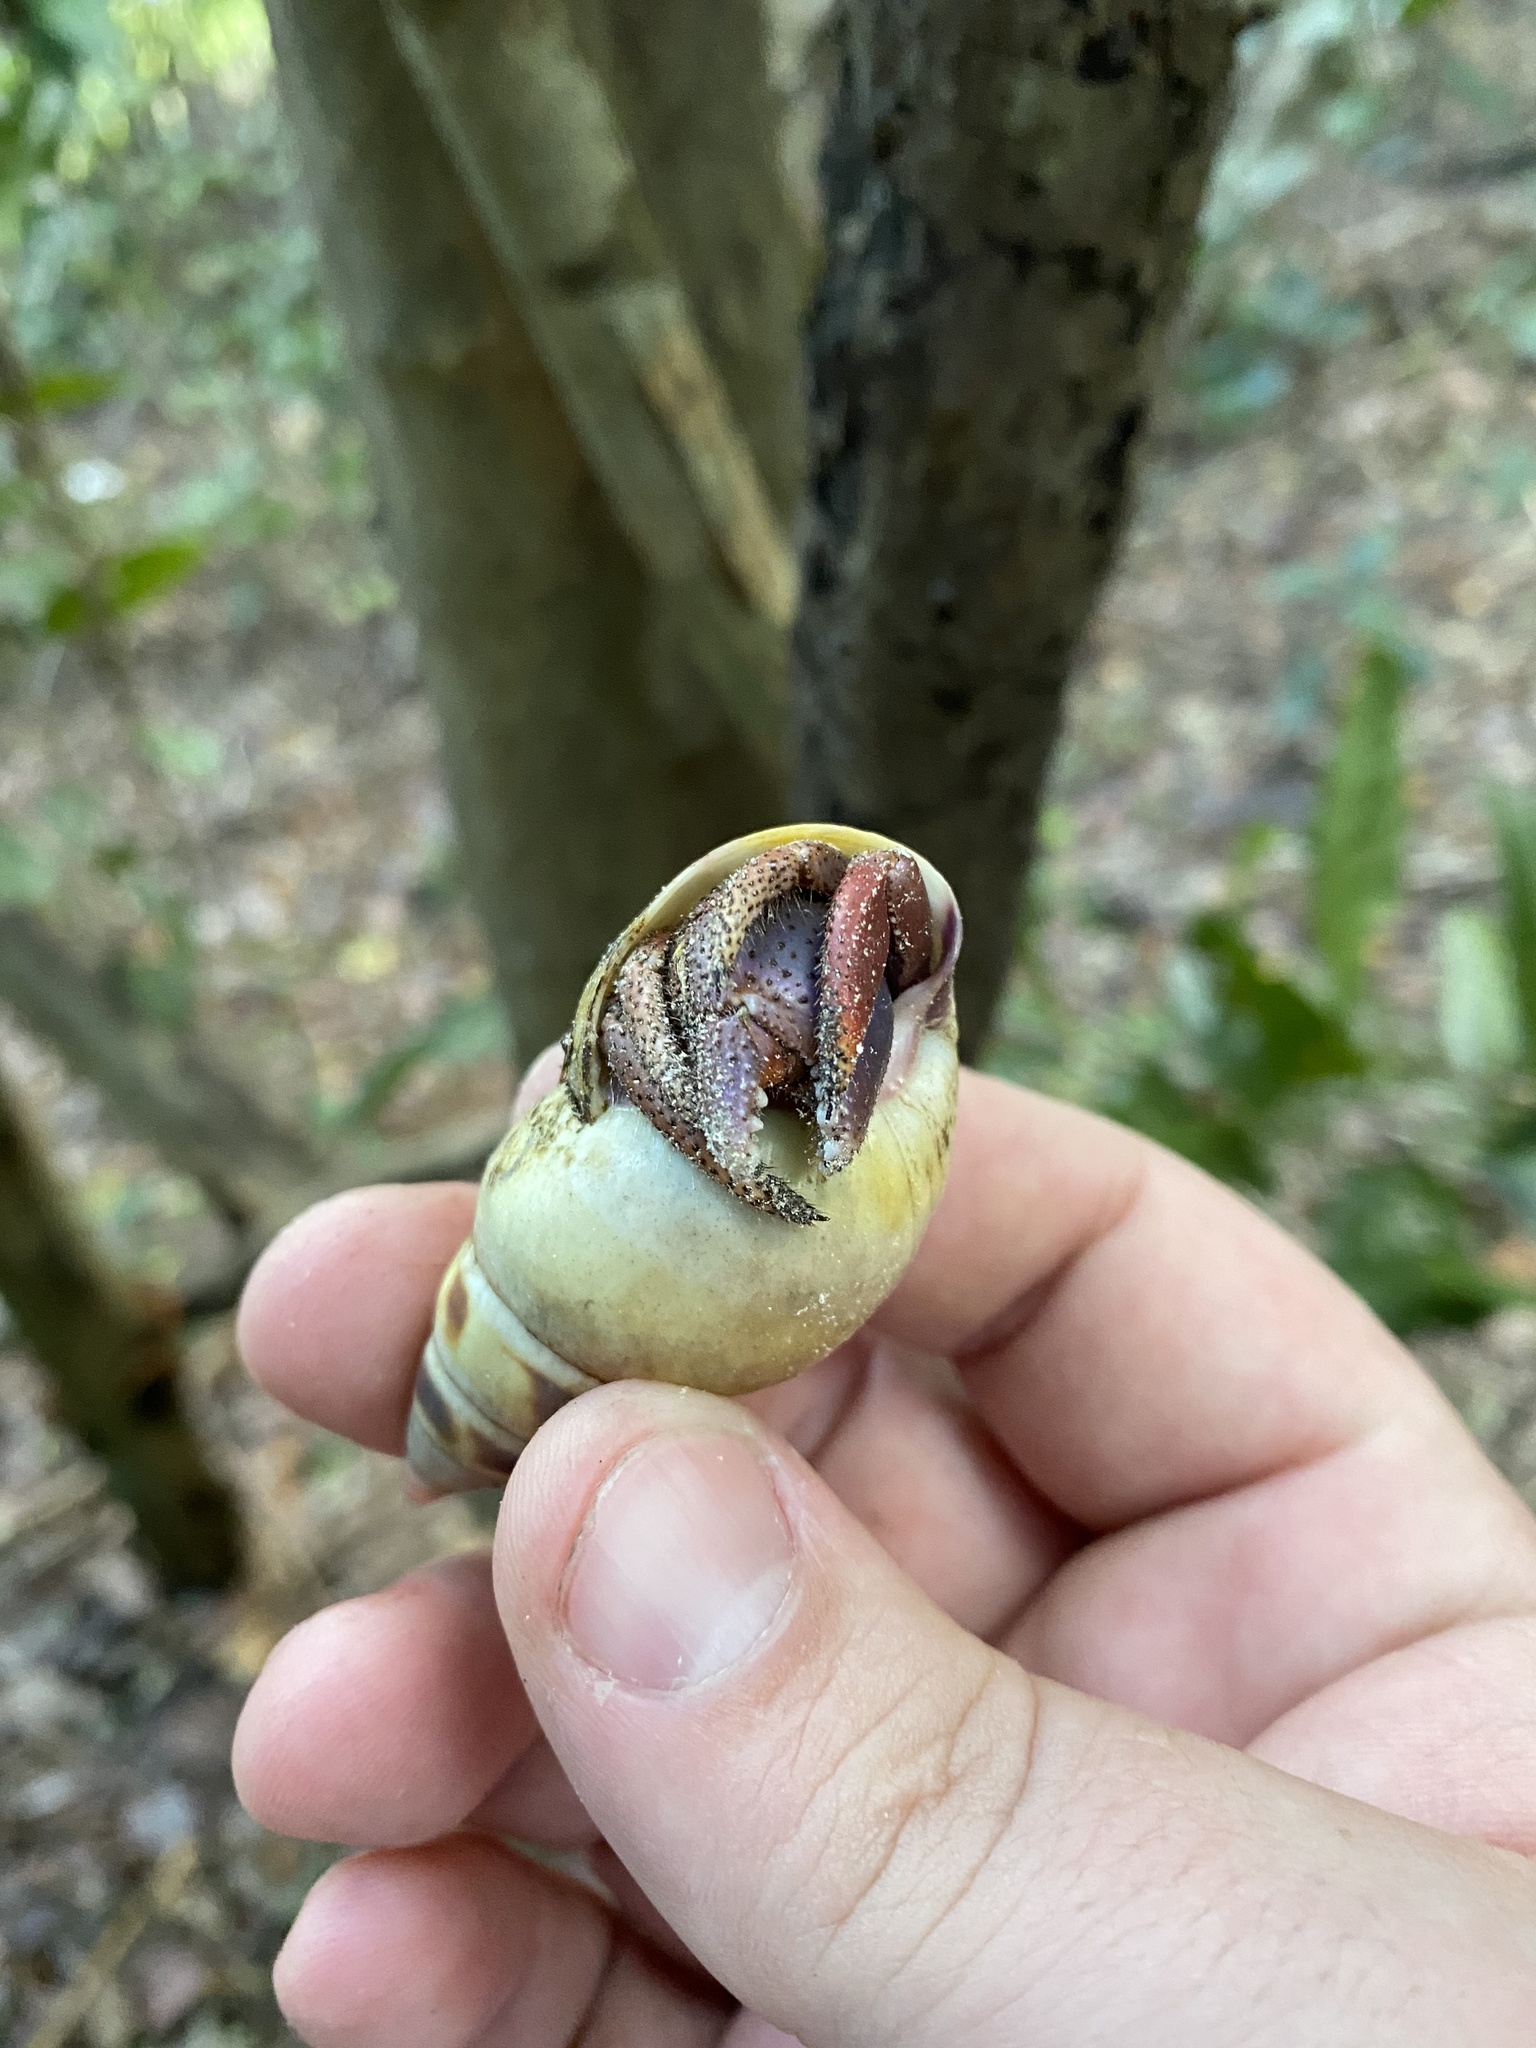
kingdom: Animalia
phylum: Arthropoda
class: Malacostraca
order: Decapoda
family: Coenobitidae
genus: Coenobita
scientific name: Coenobita clypeatus
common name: Caribbean hermit crab
